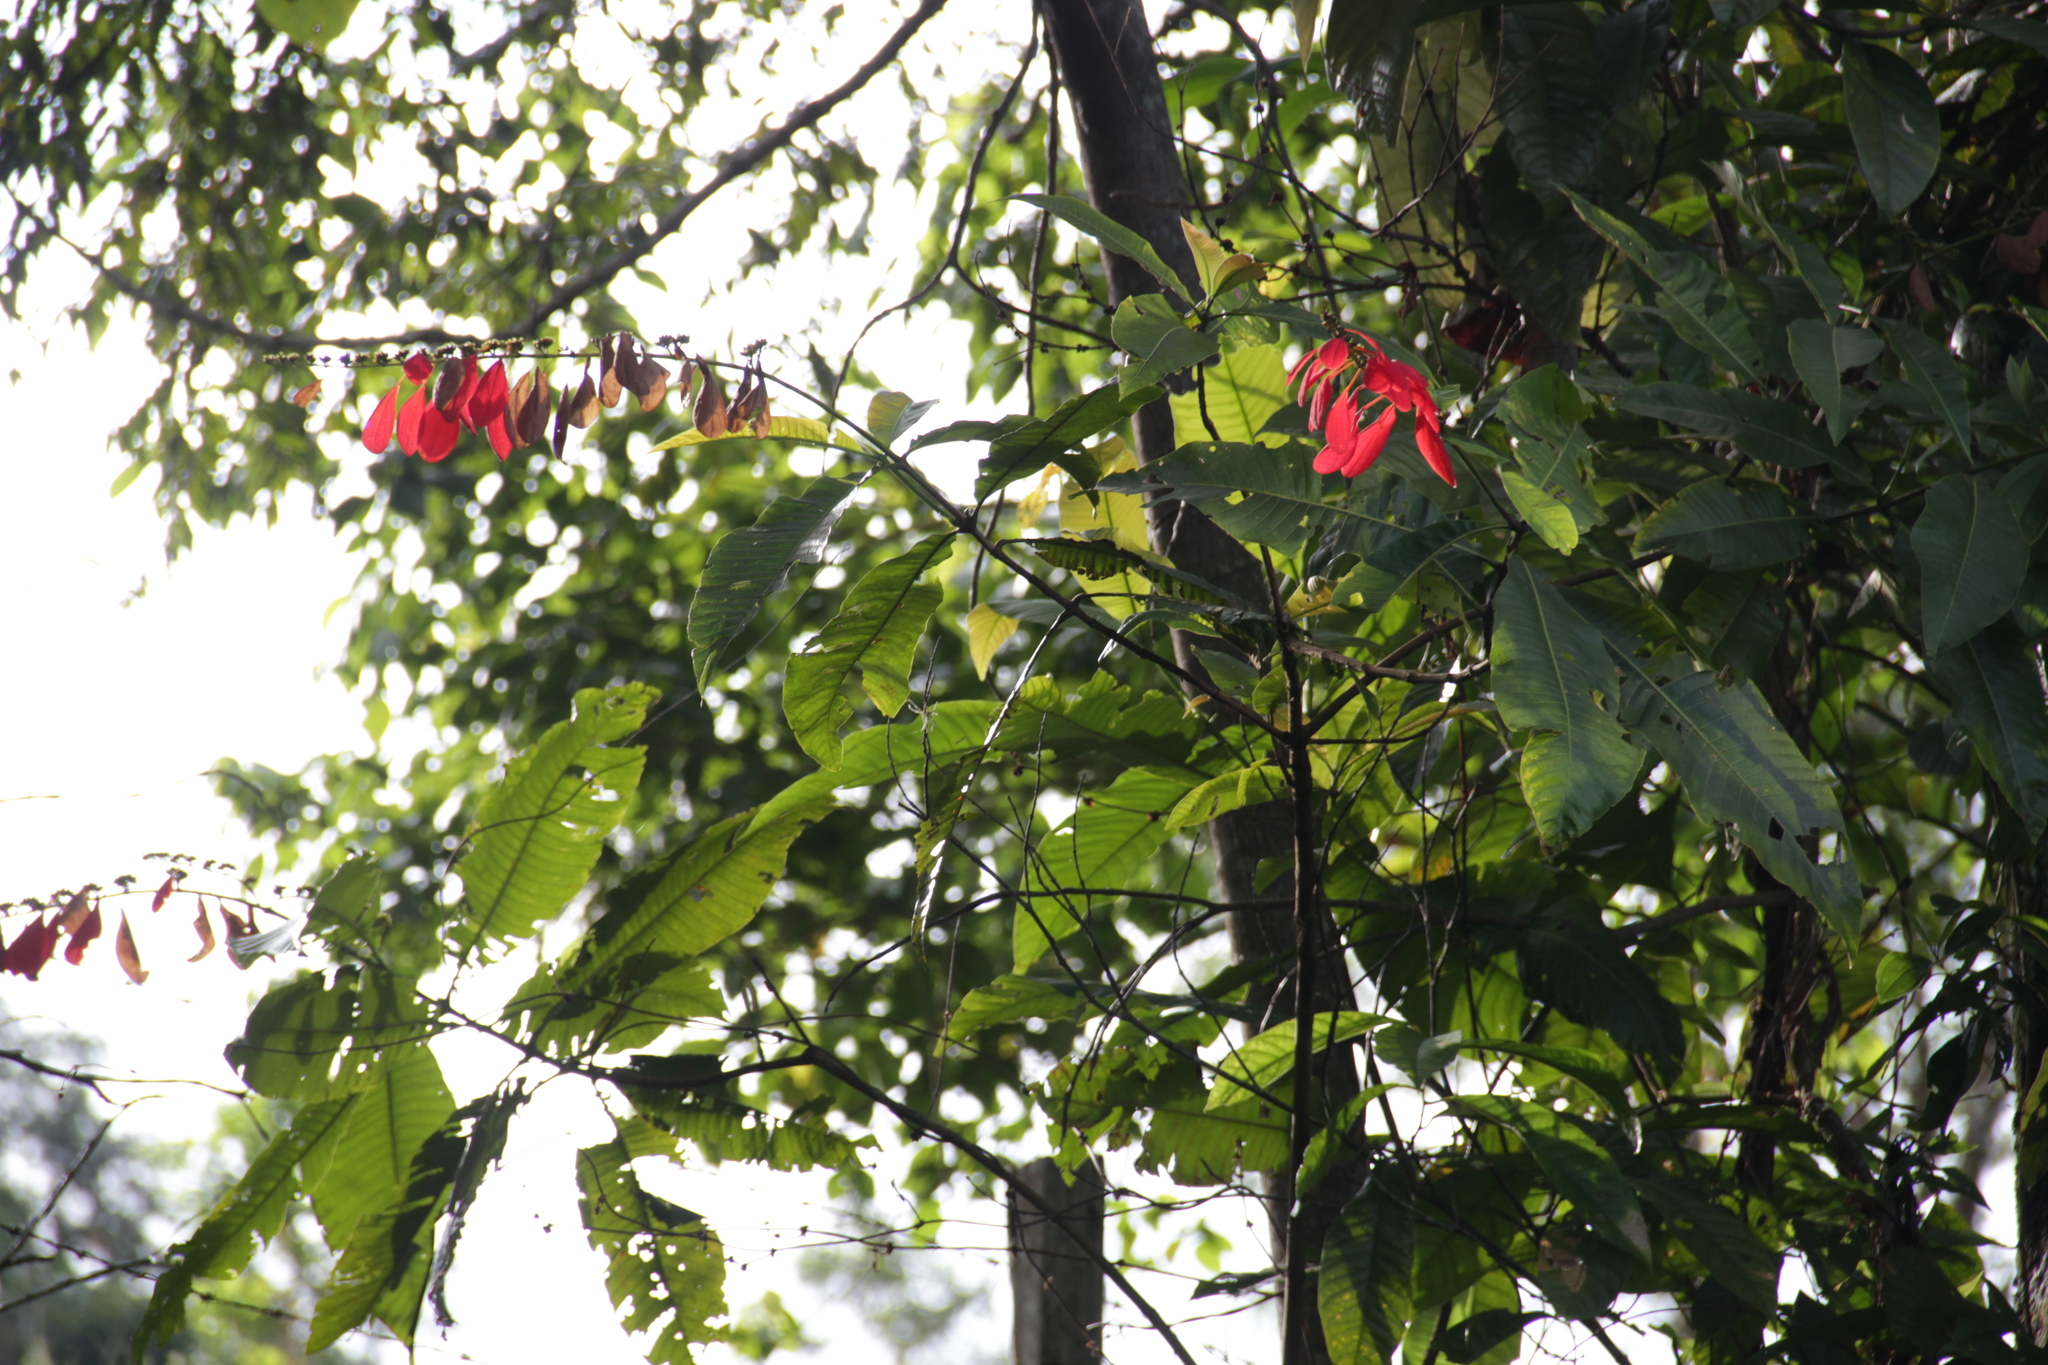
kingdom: Plantae
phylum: Tracheophyta
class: Magnoliopsida
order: Gentianales
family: Rubiaceae
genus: Warszewiczia
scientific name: Warszewiczia coccinea
